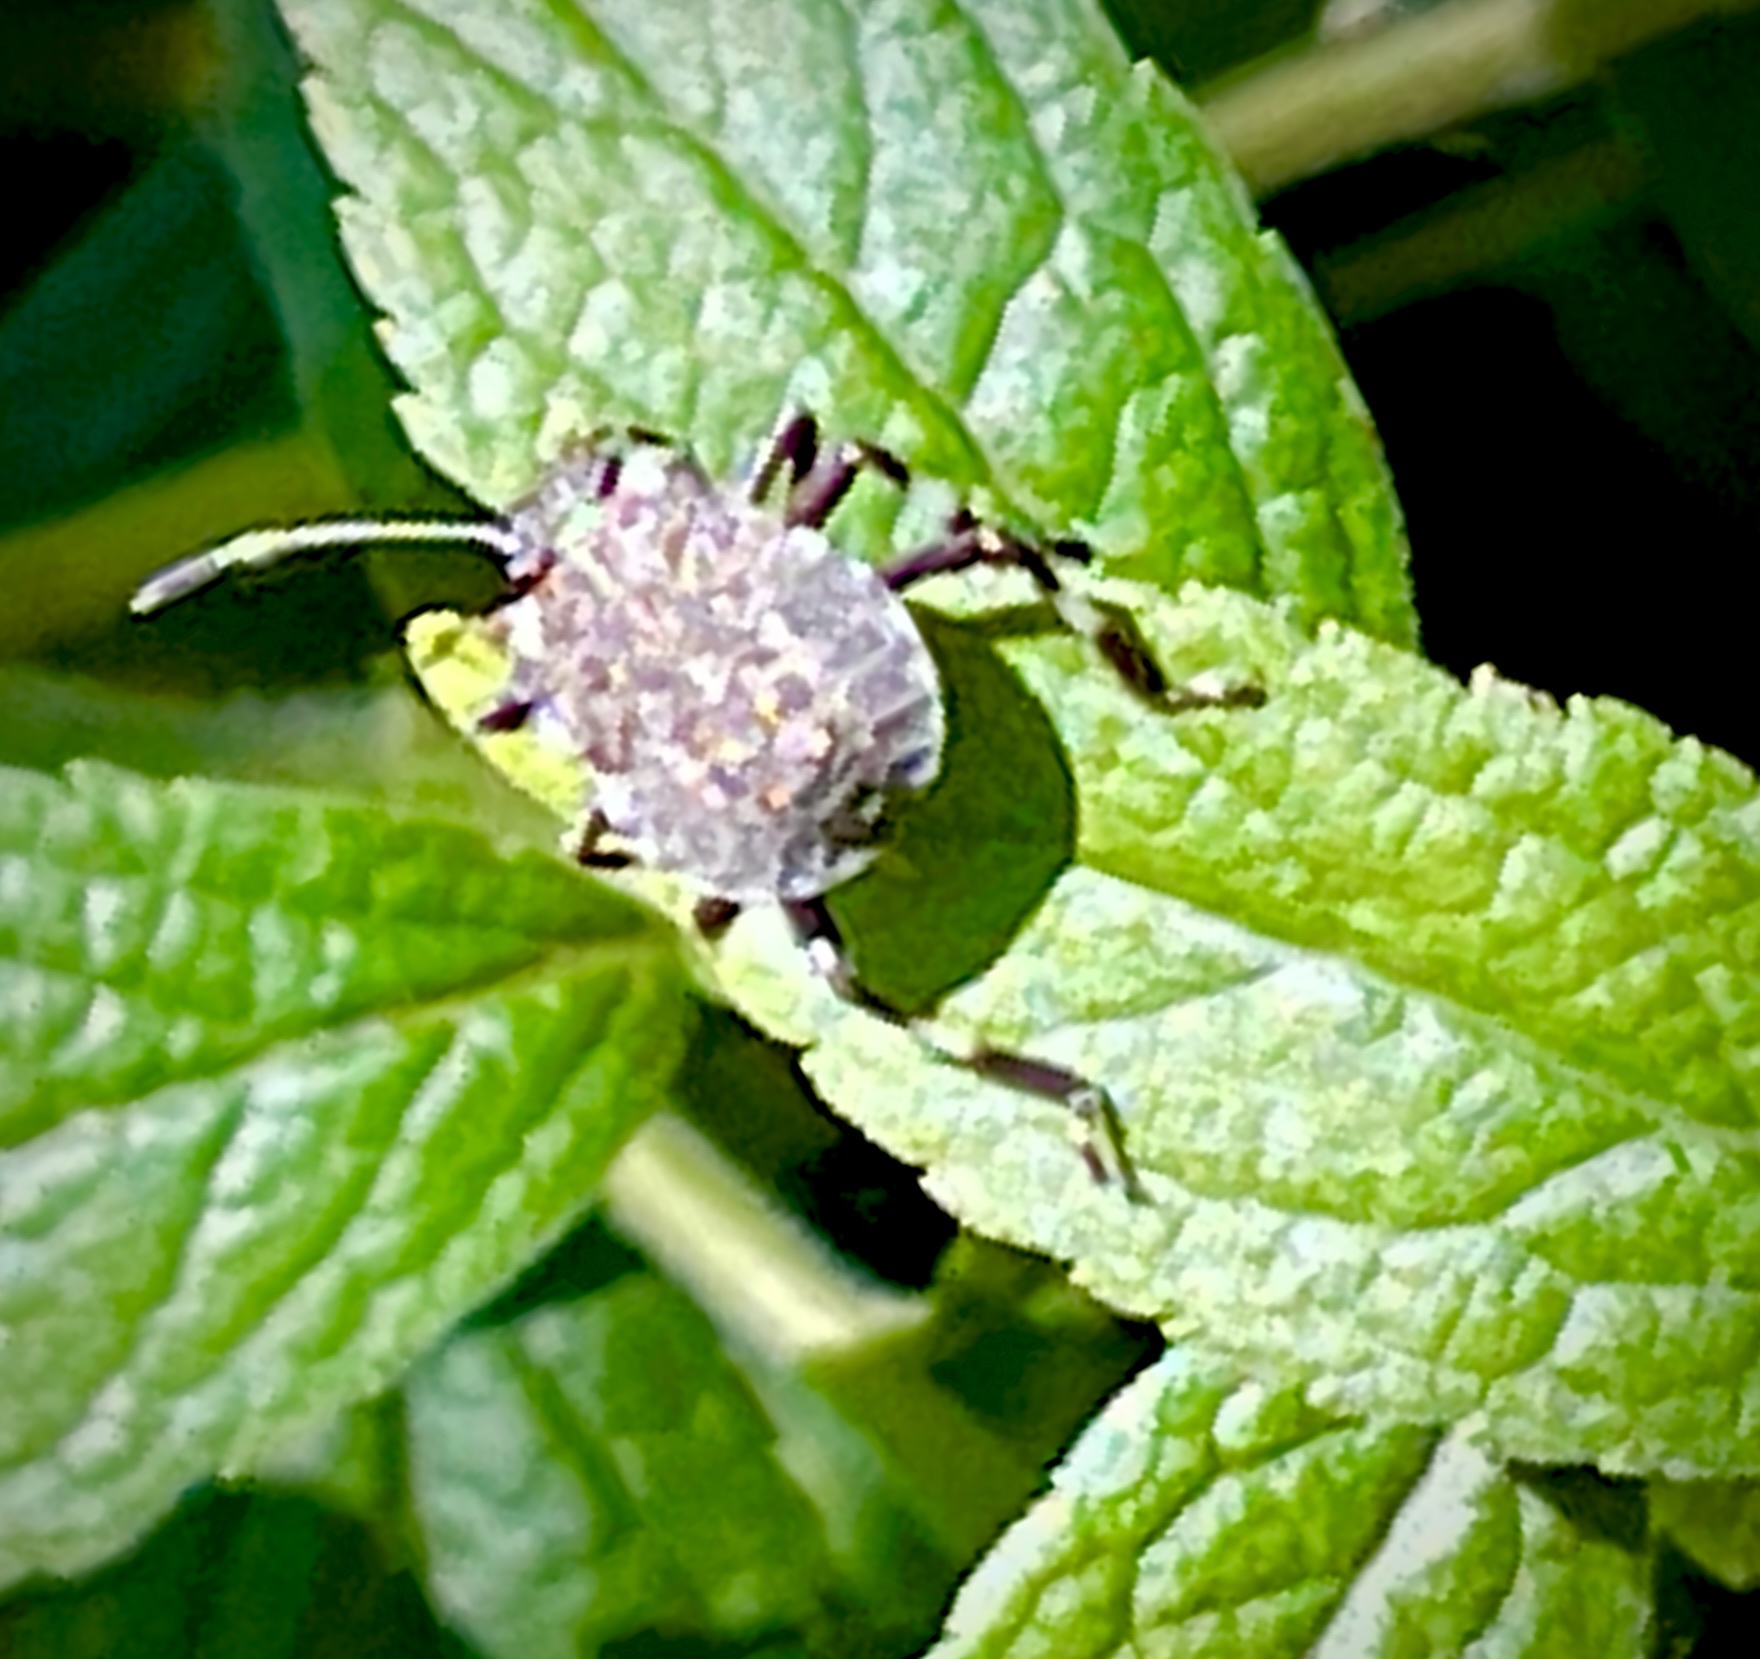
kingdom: Animalia
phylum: Arthropoda
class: Insecta
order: Hemiptera
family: Pentatomidae
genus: Halyomorpha
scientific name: Halyomorpha halys
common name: Brown marmorated stink bug
